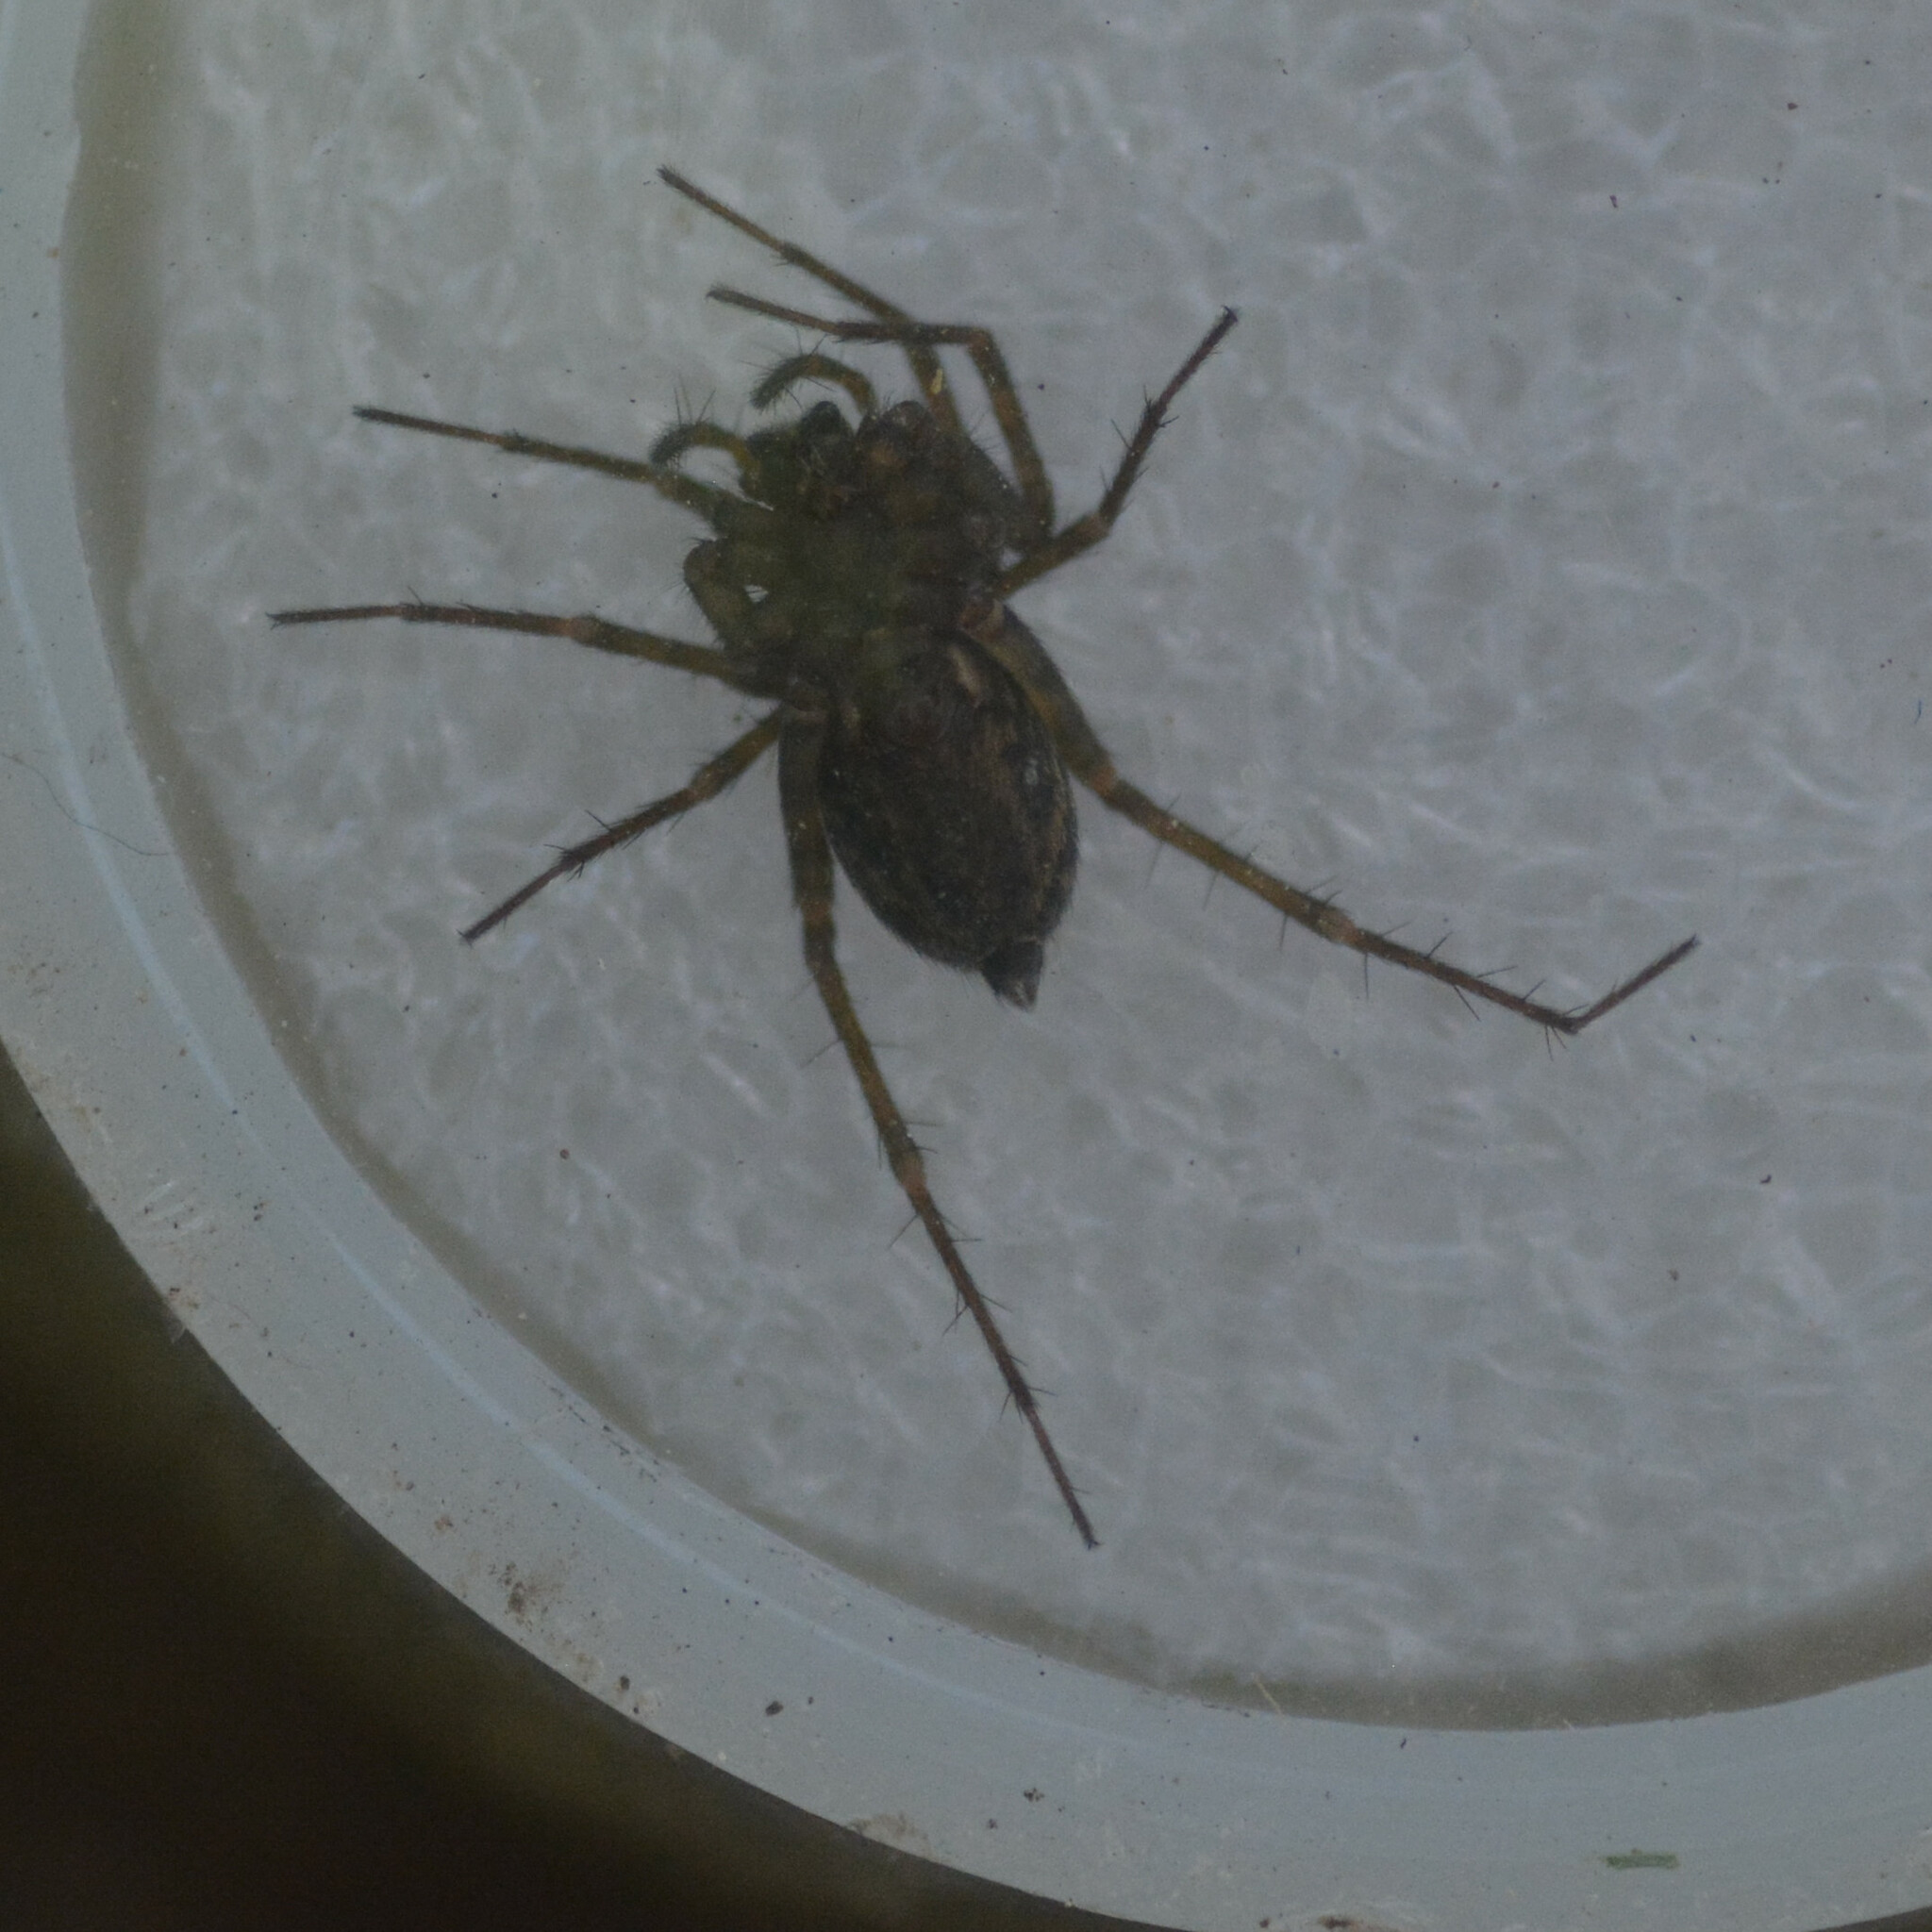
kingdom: Animalia
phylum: Arthropoda
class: Arachnida
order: Araneae
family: Agelenidae
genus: Histopona
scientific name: Histopona torpida
